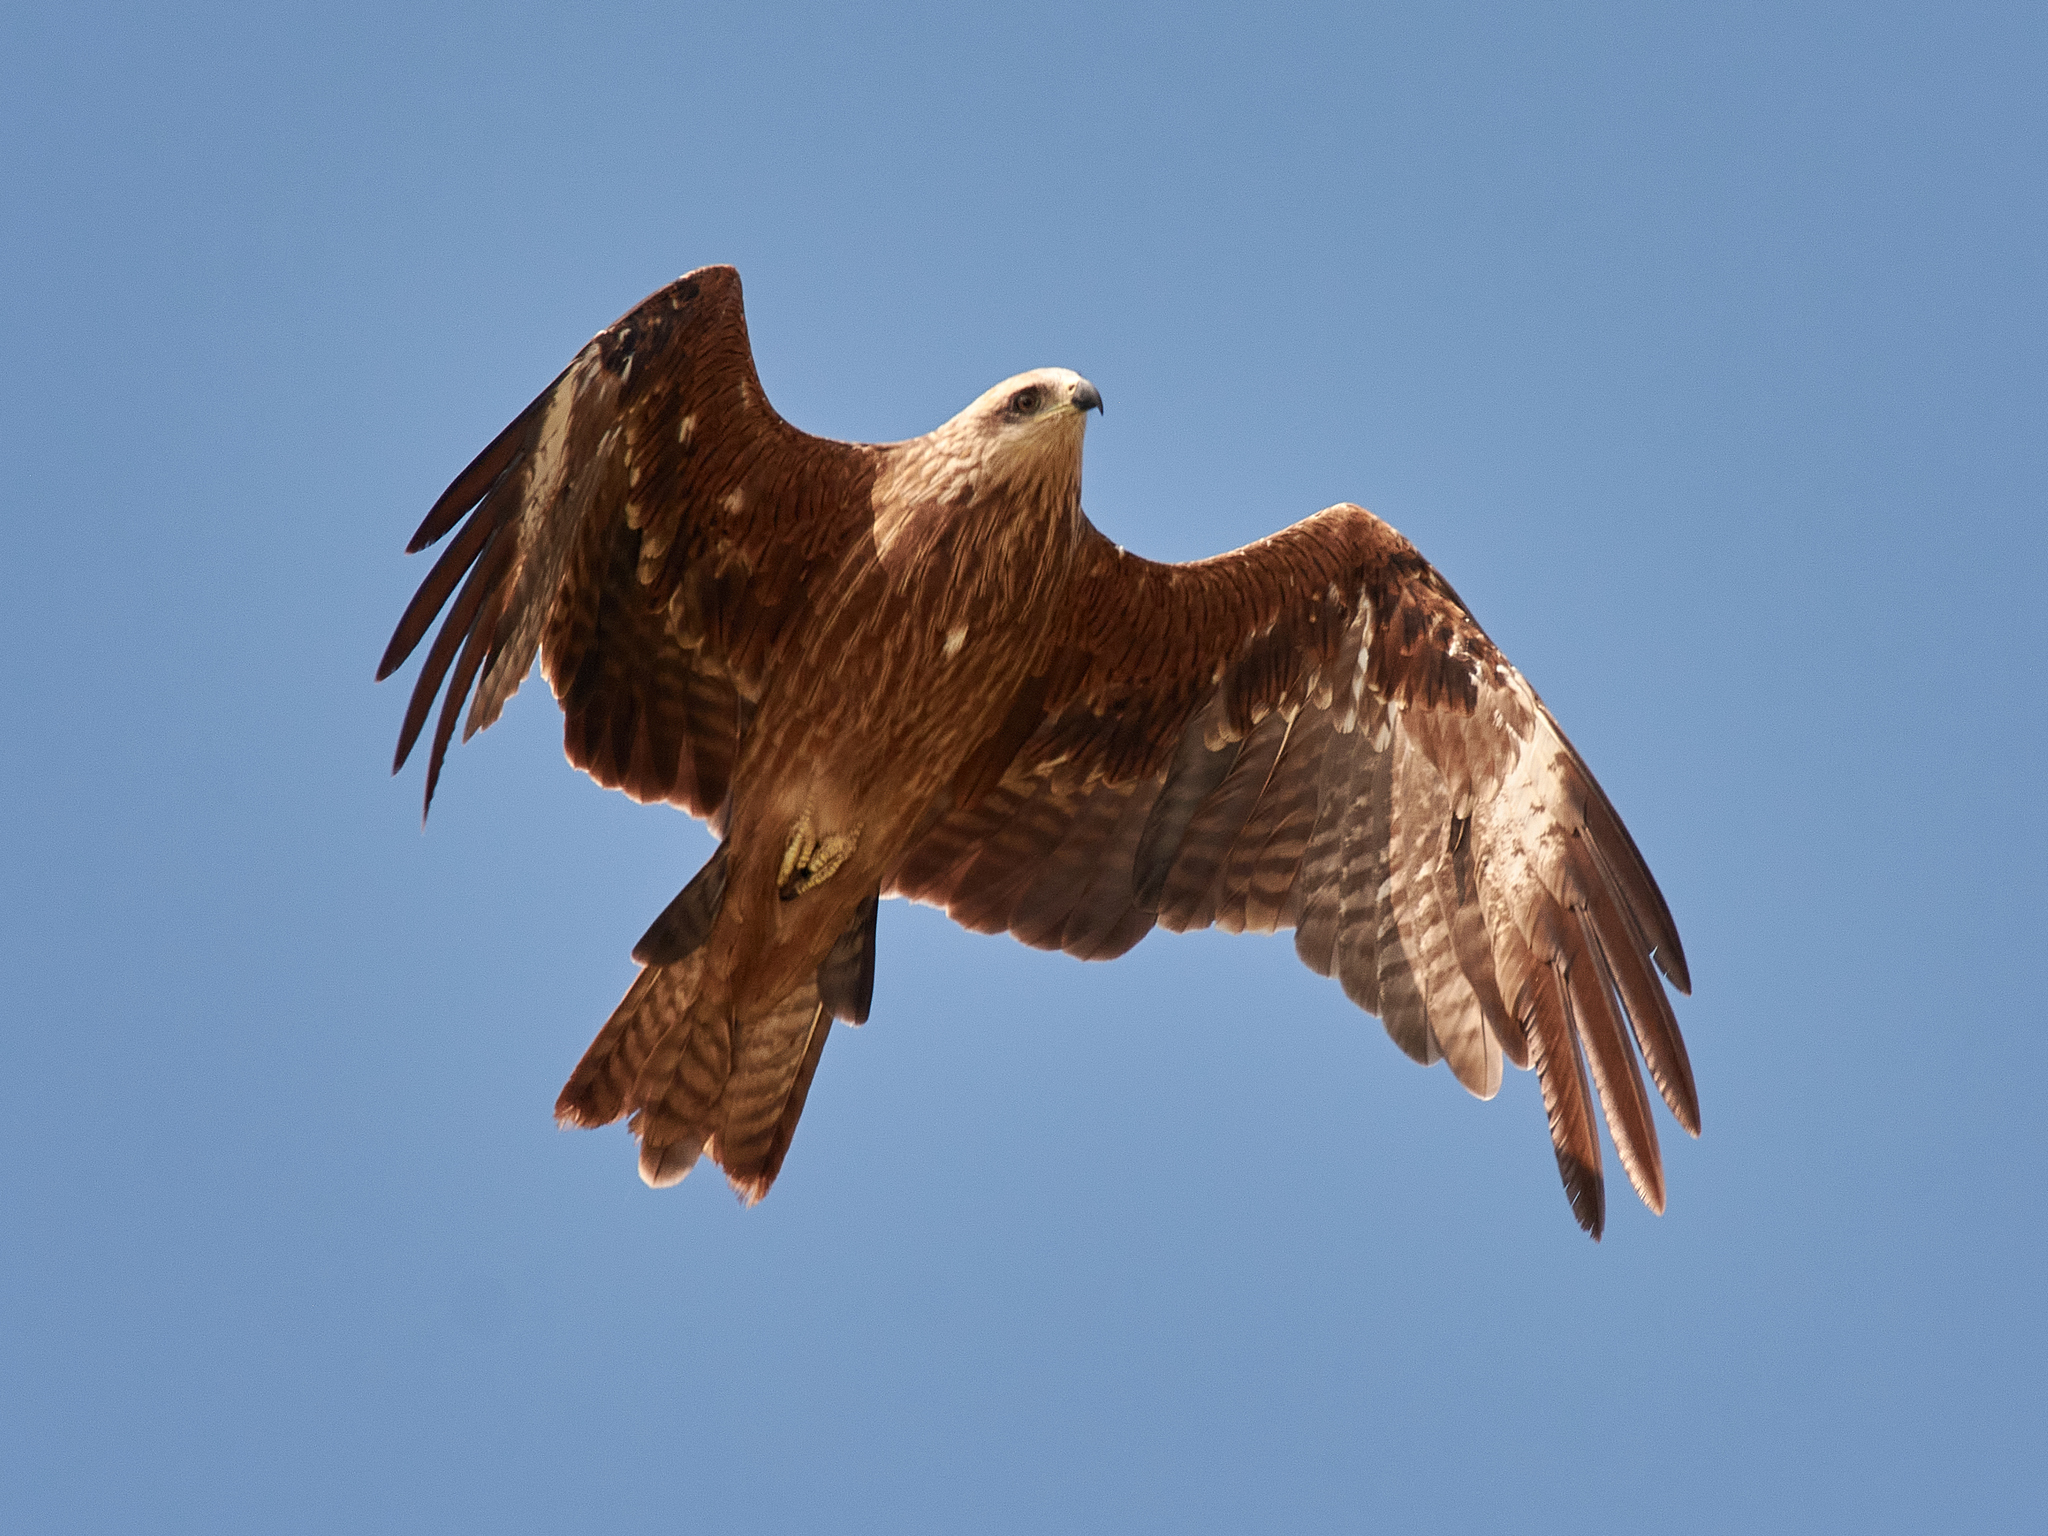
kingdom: Animalia
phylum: Chordata
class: Aves
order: Accipitriformes
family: Accipitridae
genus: Milvus
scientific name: Milvus migrans
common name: Black kite
